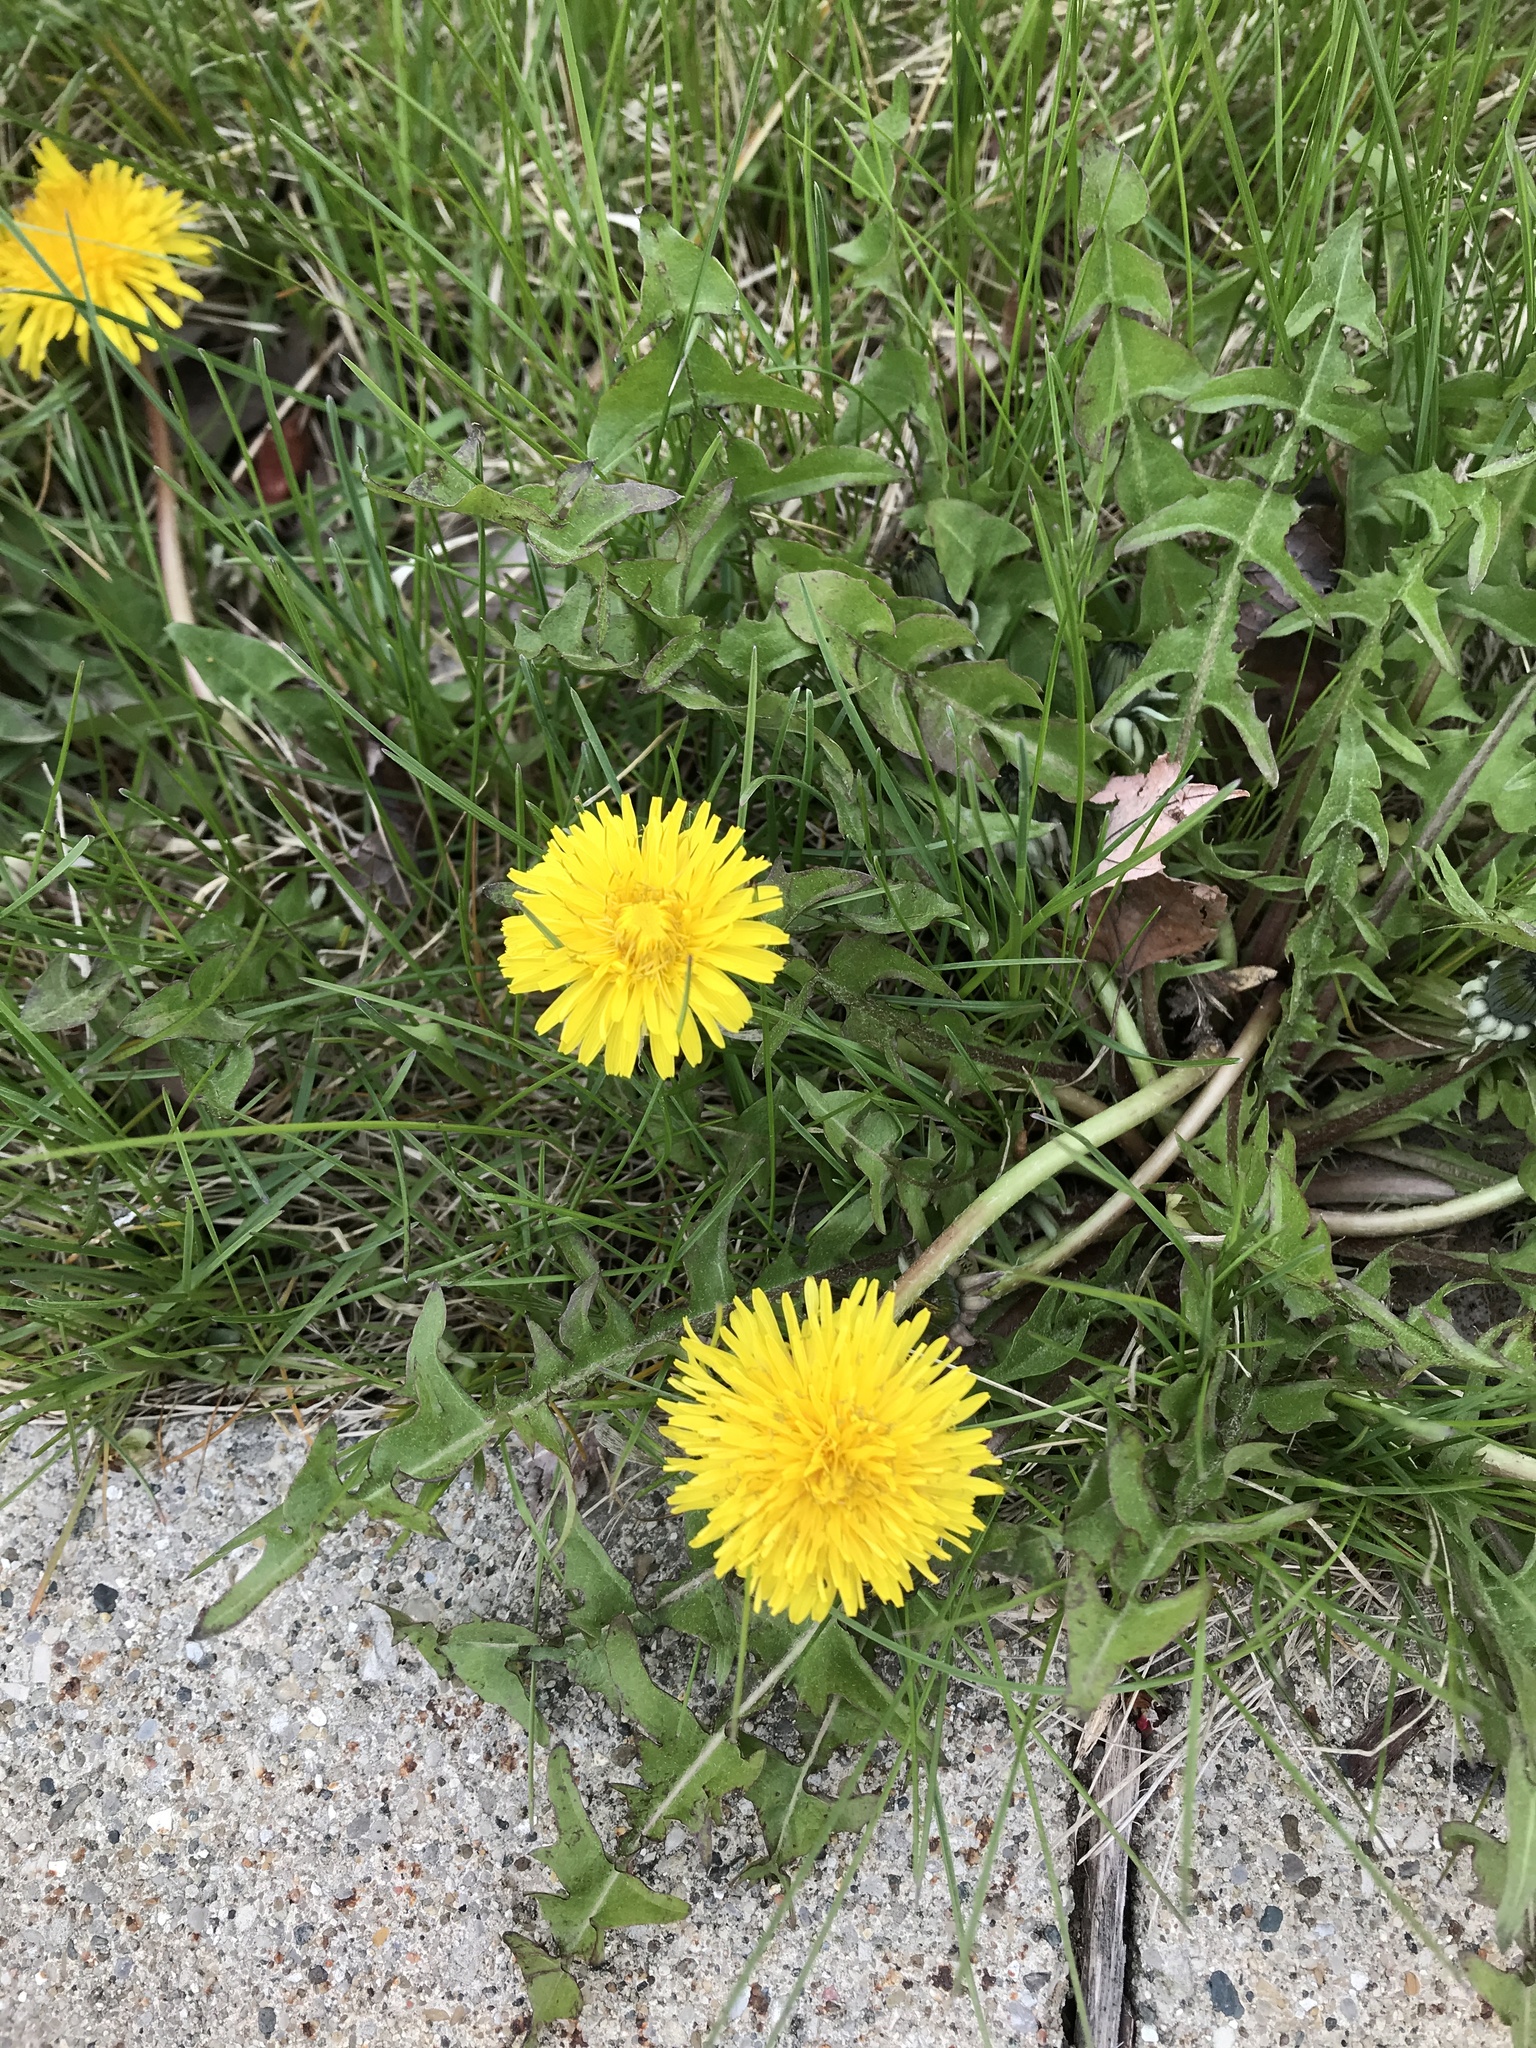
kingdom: Plantae
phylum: Tracheophyta
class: Magnoliopsida
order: Asterales
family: Asteraceae
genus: Taraxacum
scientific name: Taraxacum officinale
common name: Common dandelion
